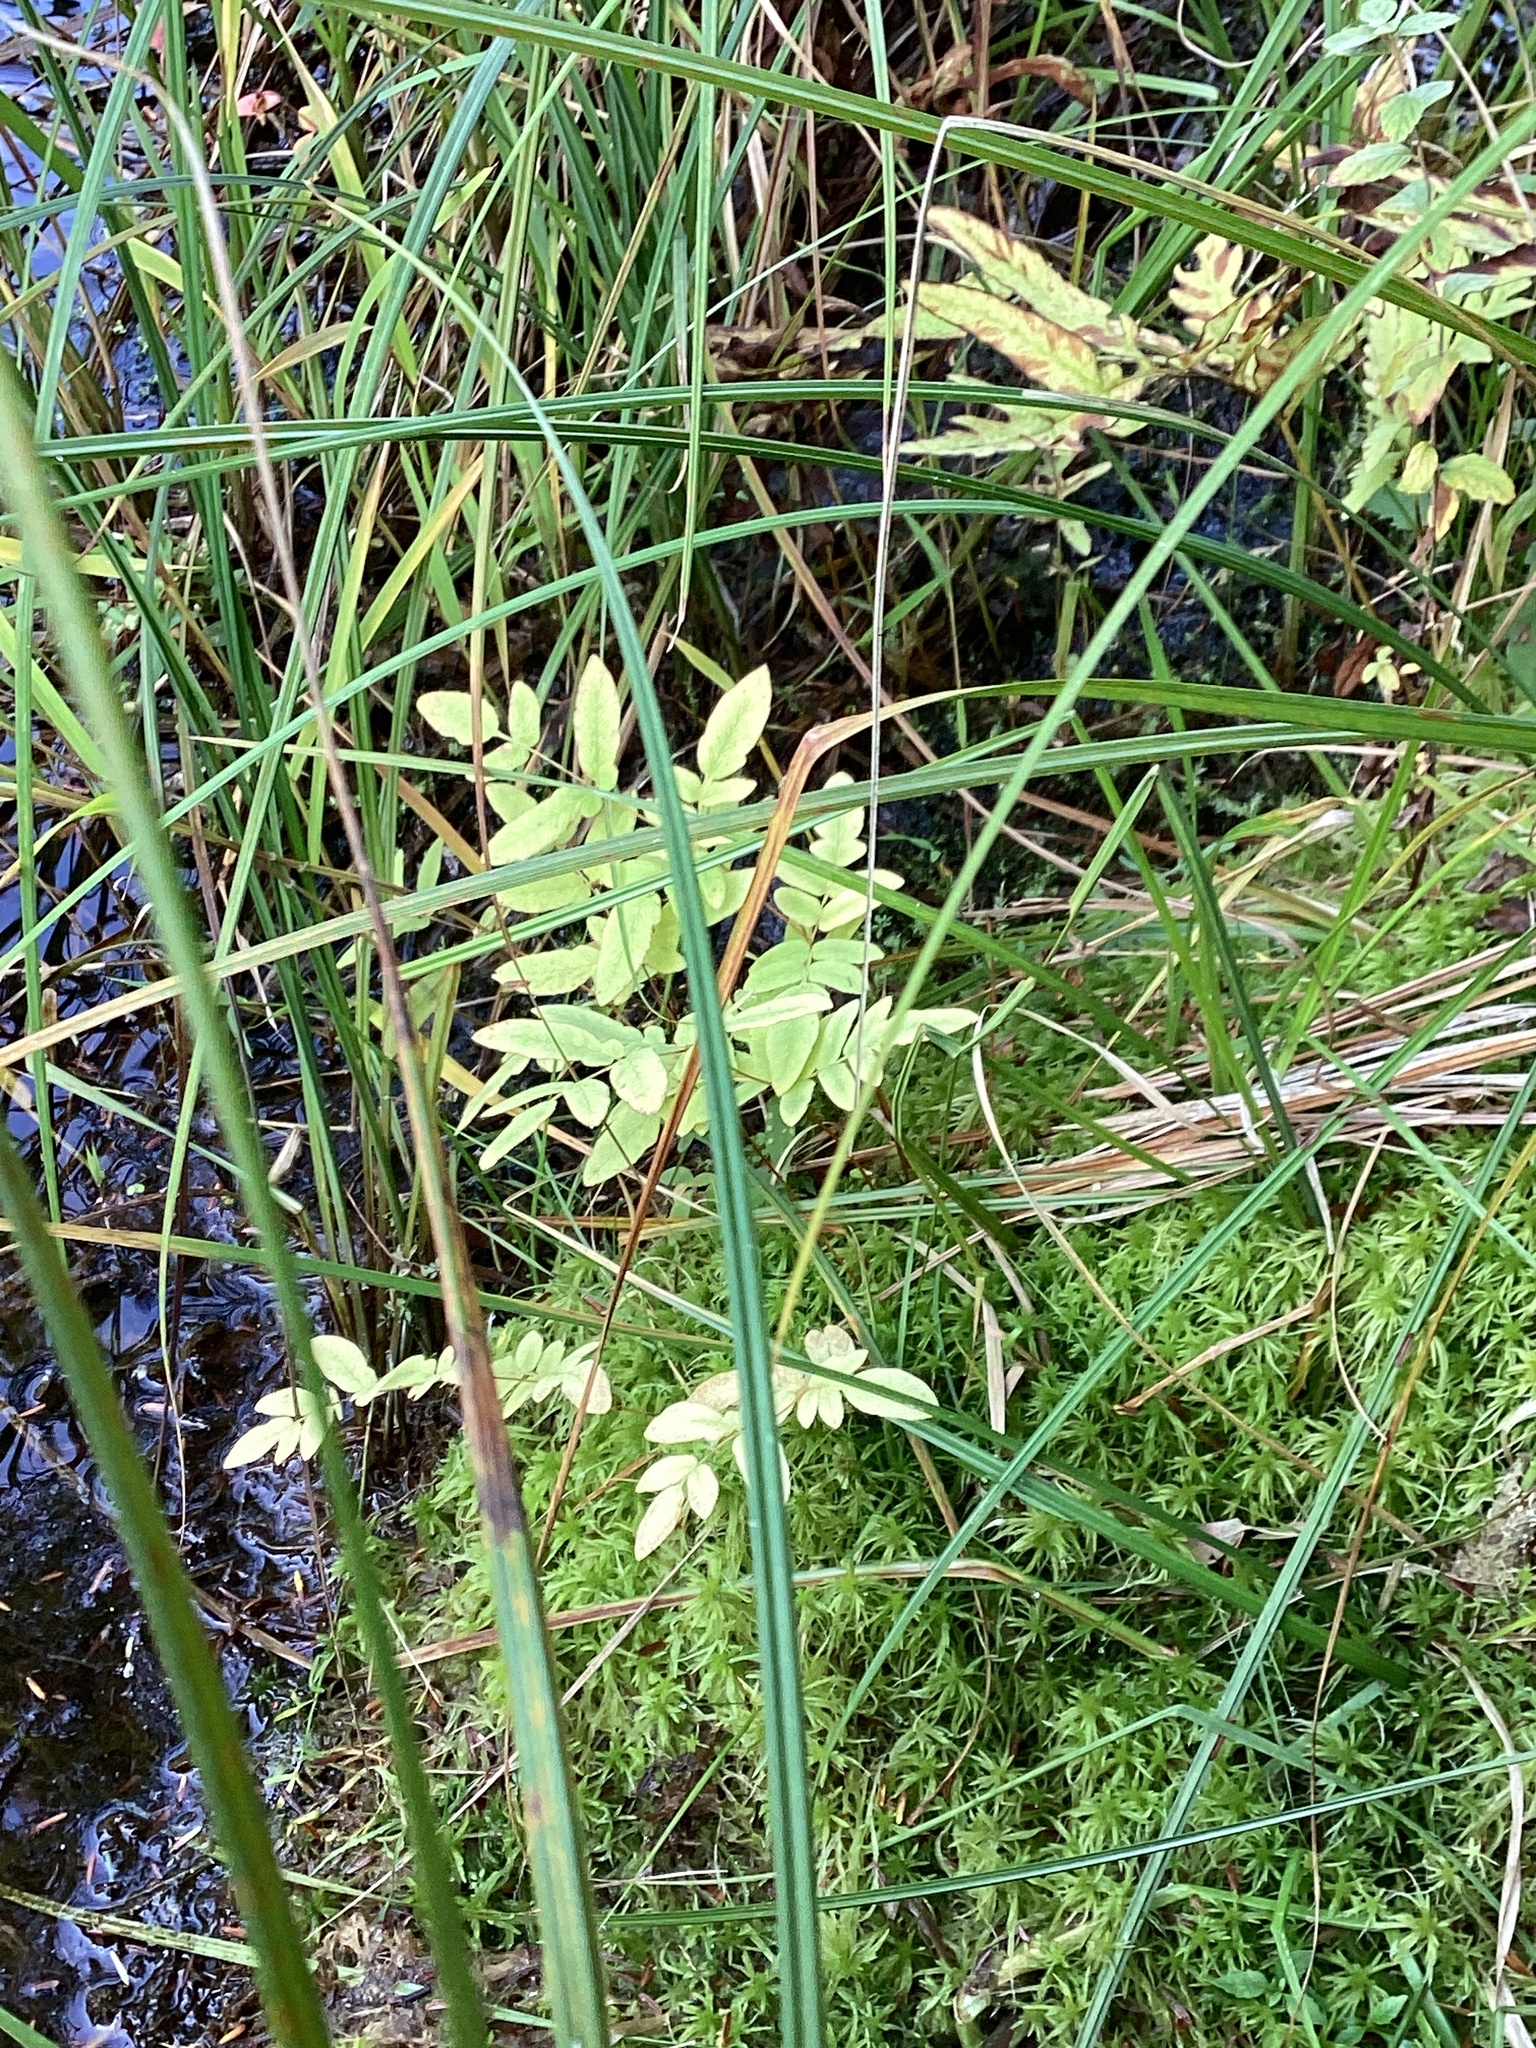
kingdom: Plantae
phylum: Tracheophyta
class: Polypodiopsida
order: Osmundales
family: Osmundaceae
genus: Osmunda
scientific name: Osmunda spectabilis
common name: American royal fern
